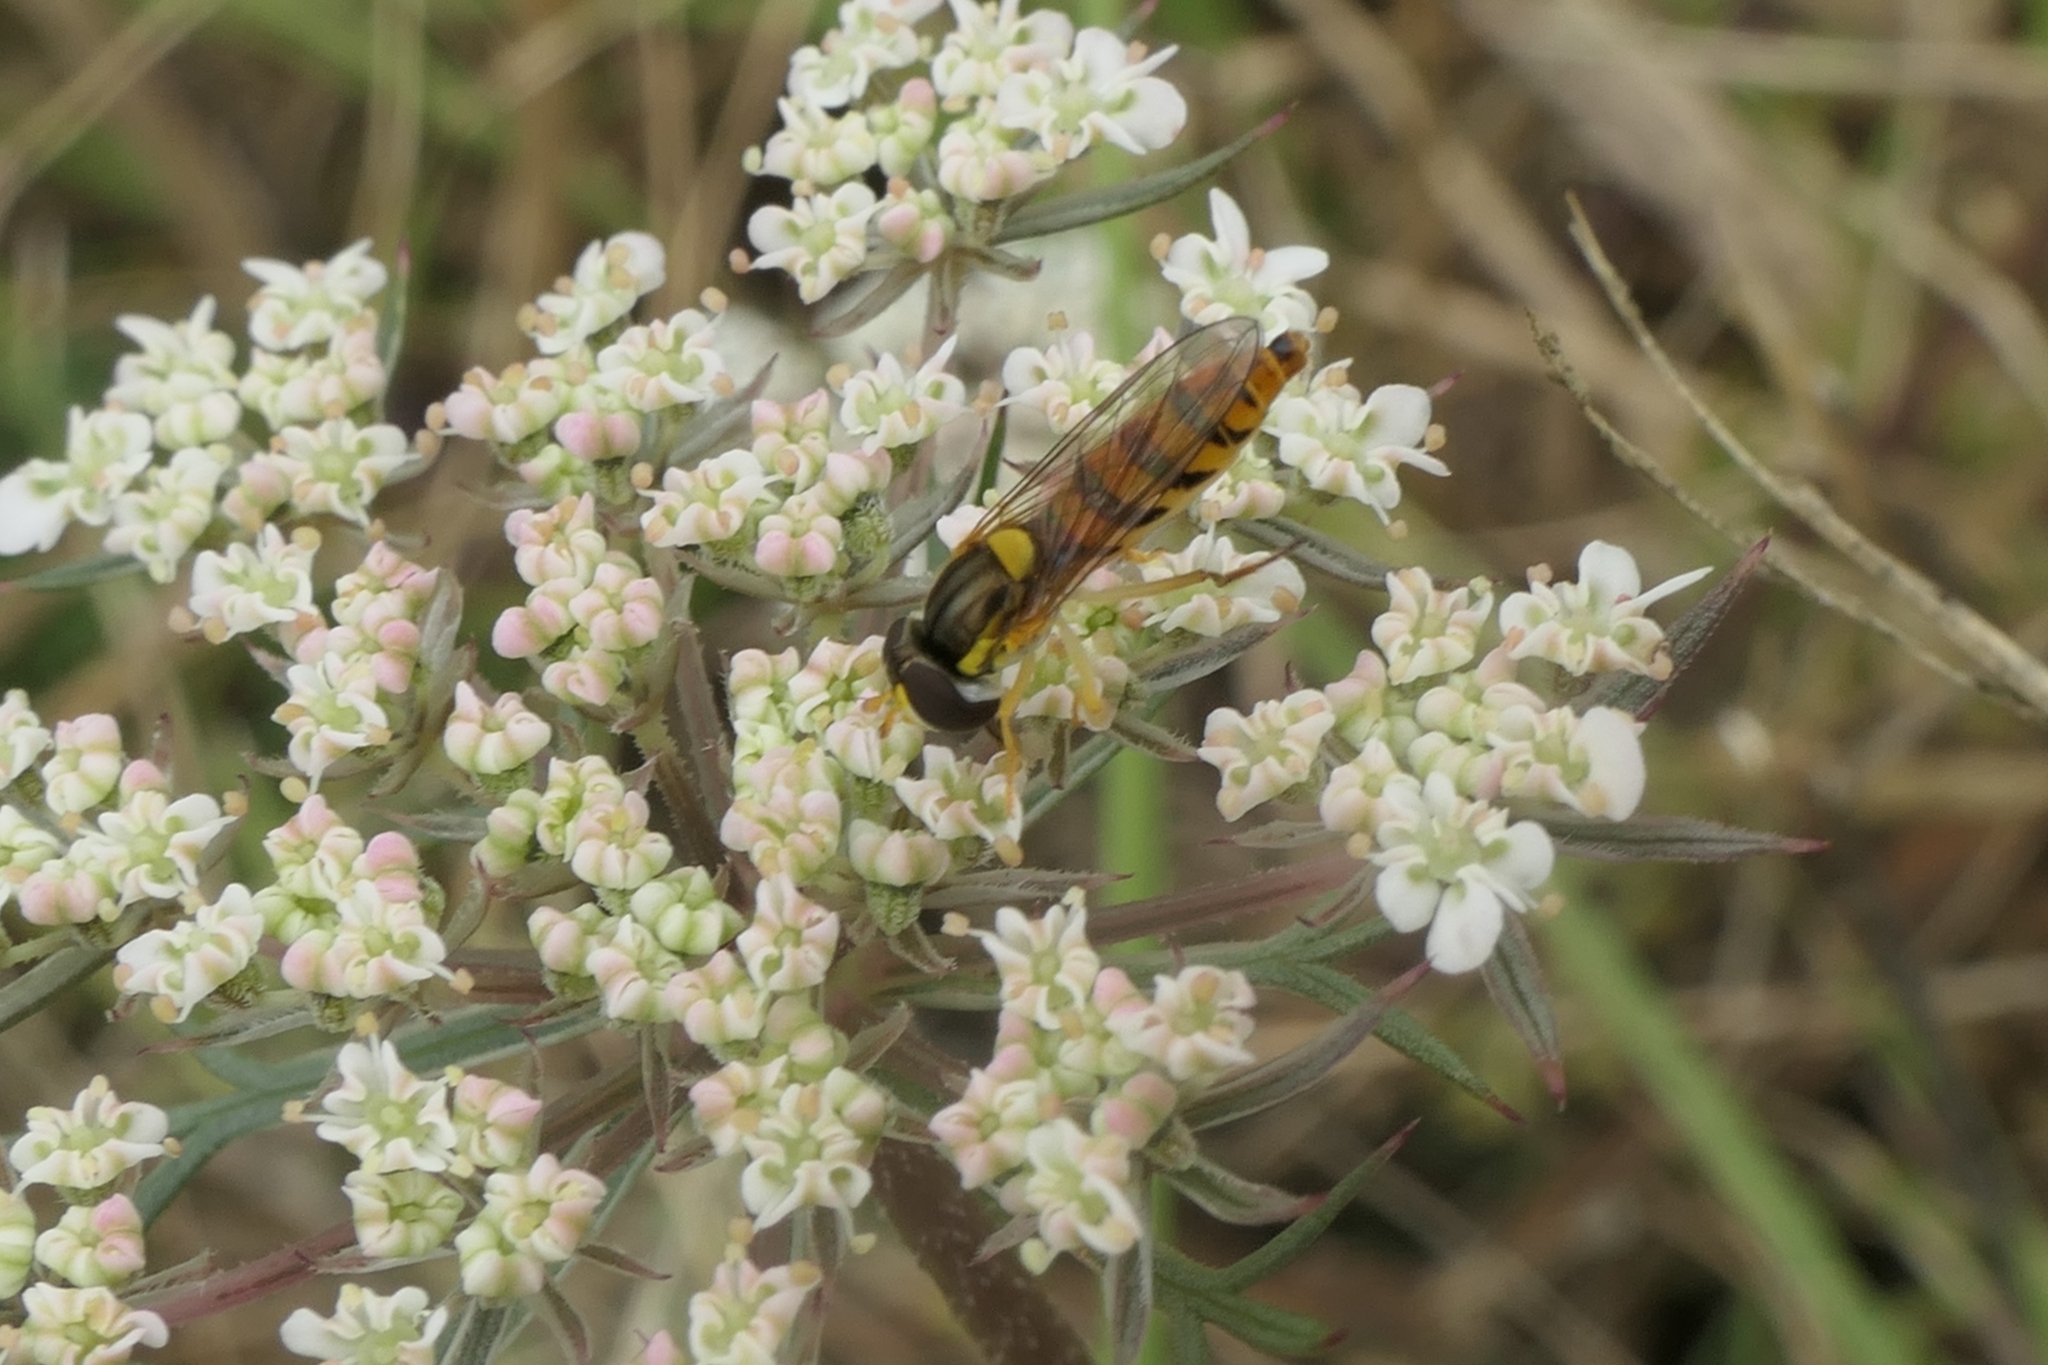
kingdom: Animalia
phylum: Arthropoda
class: Insecta
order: Diptera
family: Syrphidae
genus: Sphaerophoria
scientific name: Sphaerophoria macrogaster
